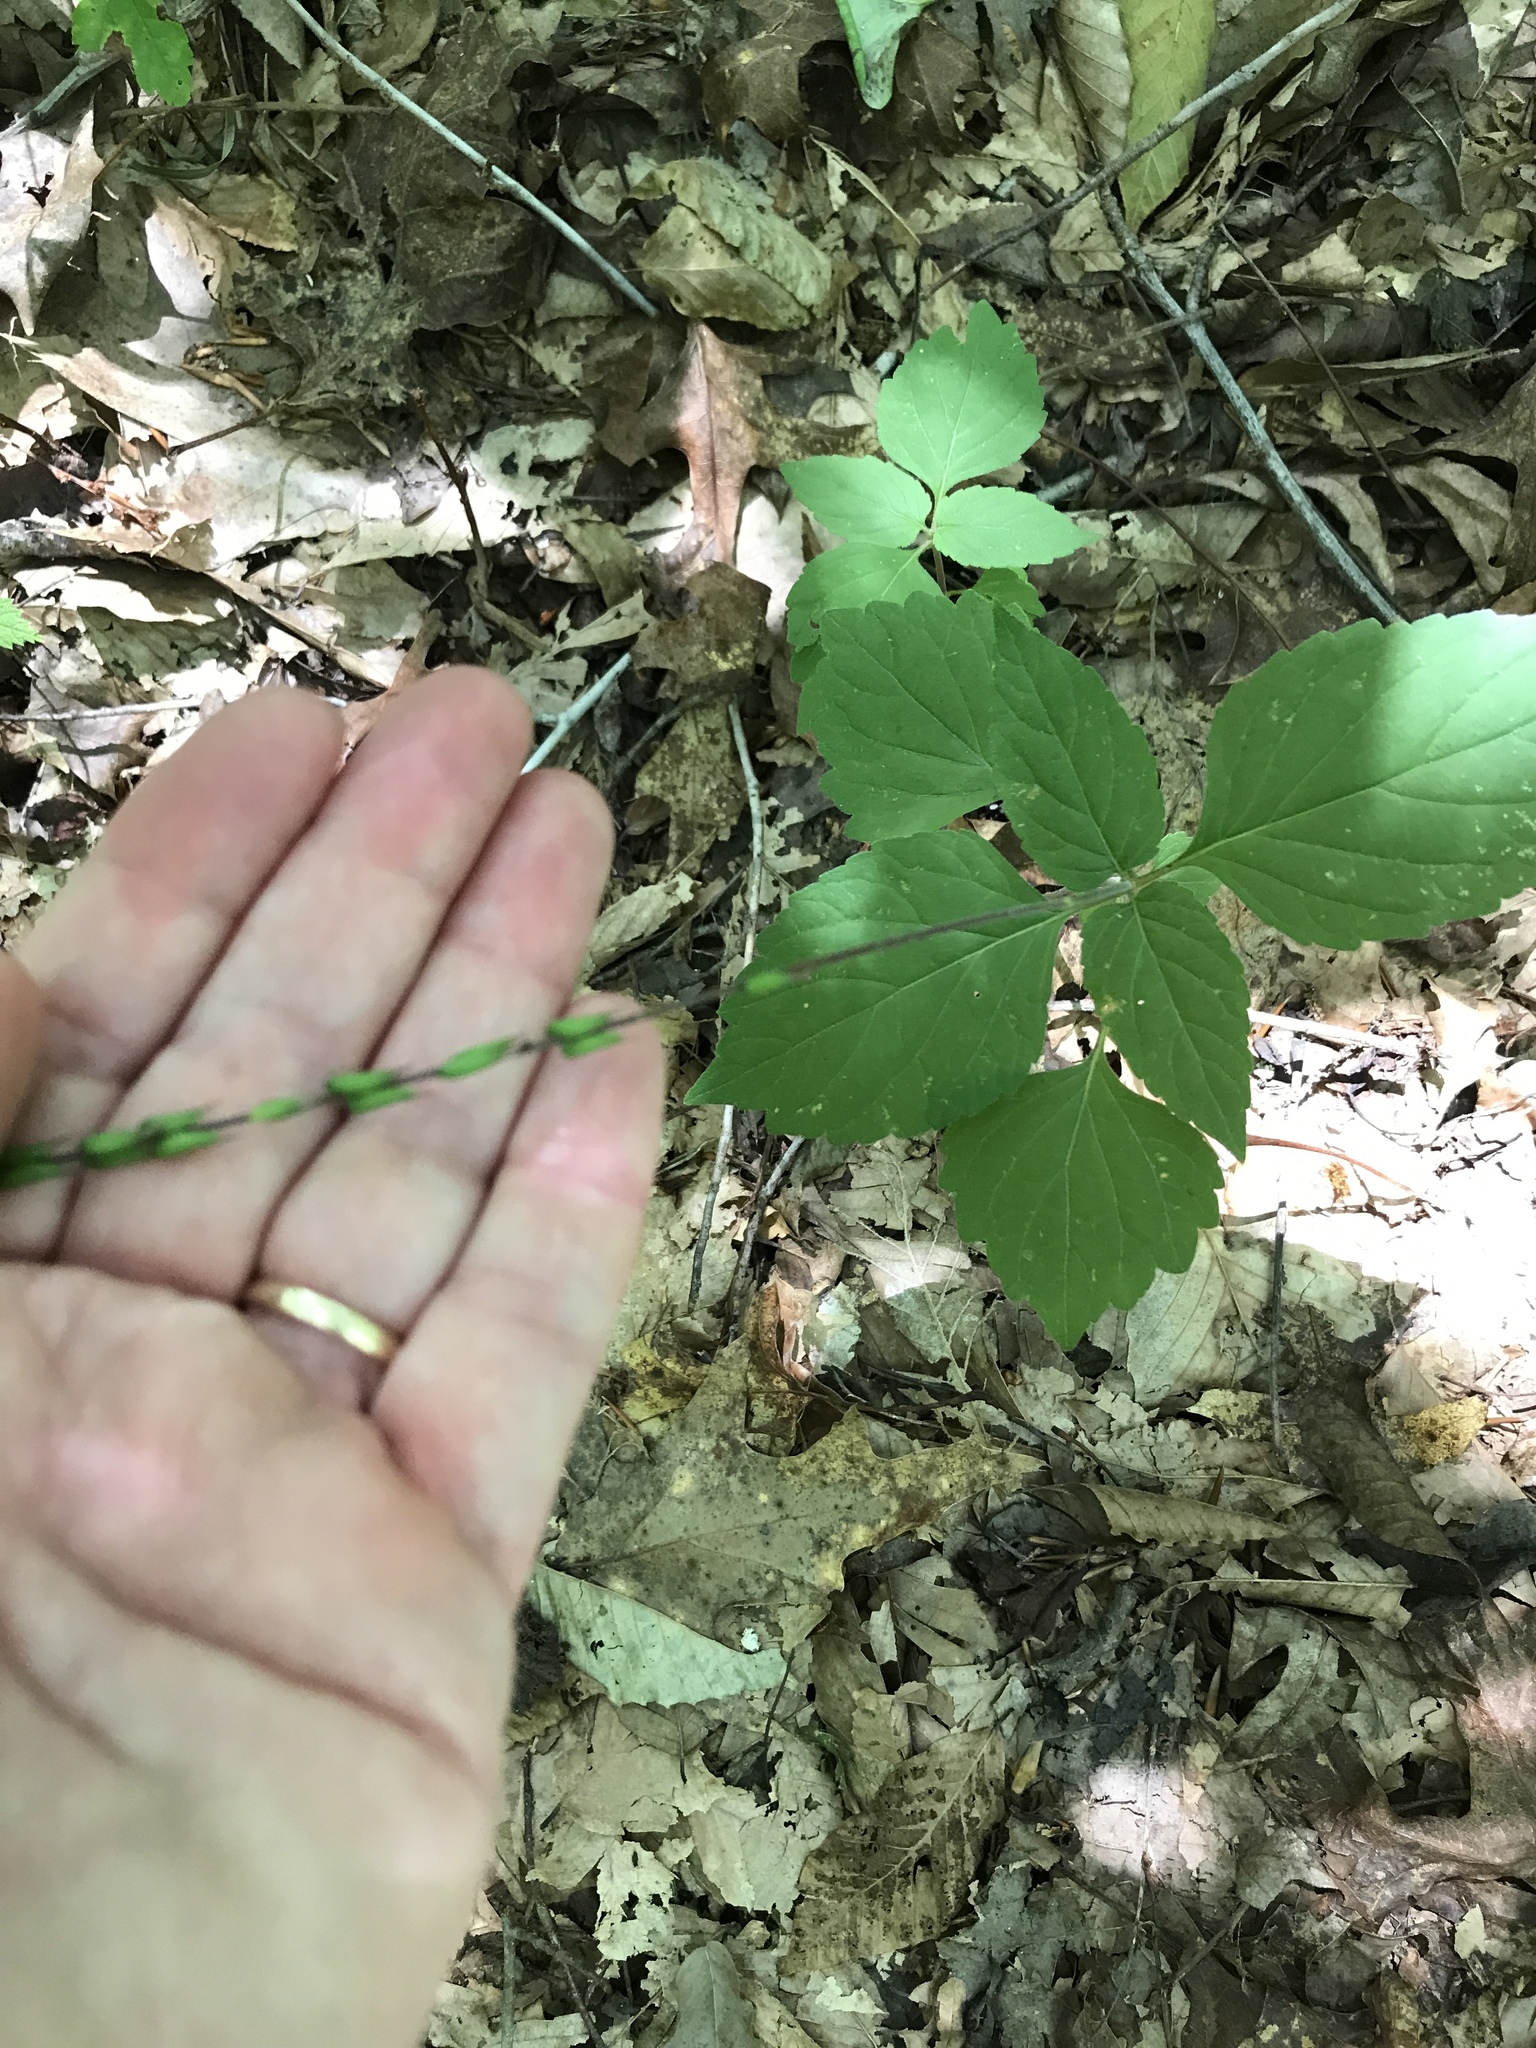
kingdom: Plantae
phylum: Tracheophyta
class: Magnoliopsida
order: Lamiales
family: Phrymaceae
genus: Phryma
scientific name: Phryma leptostachya
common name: American lopseed
